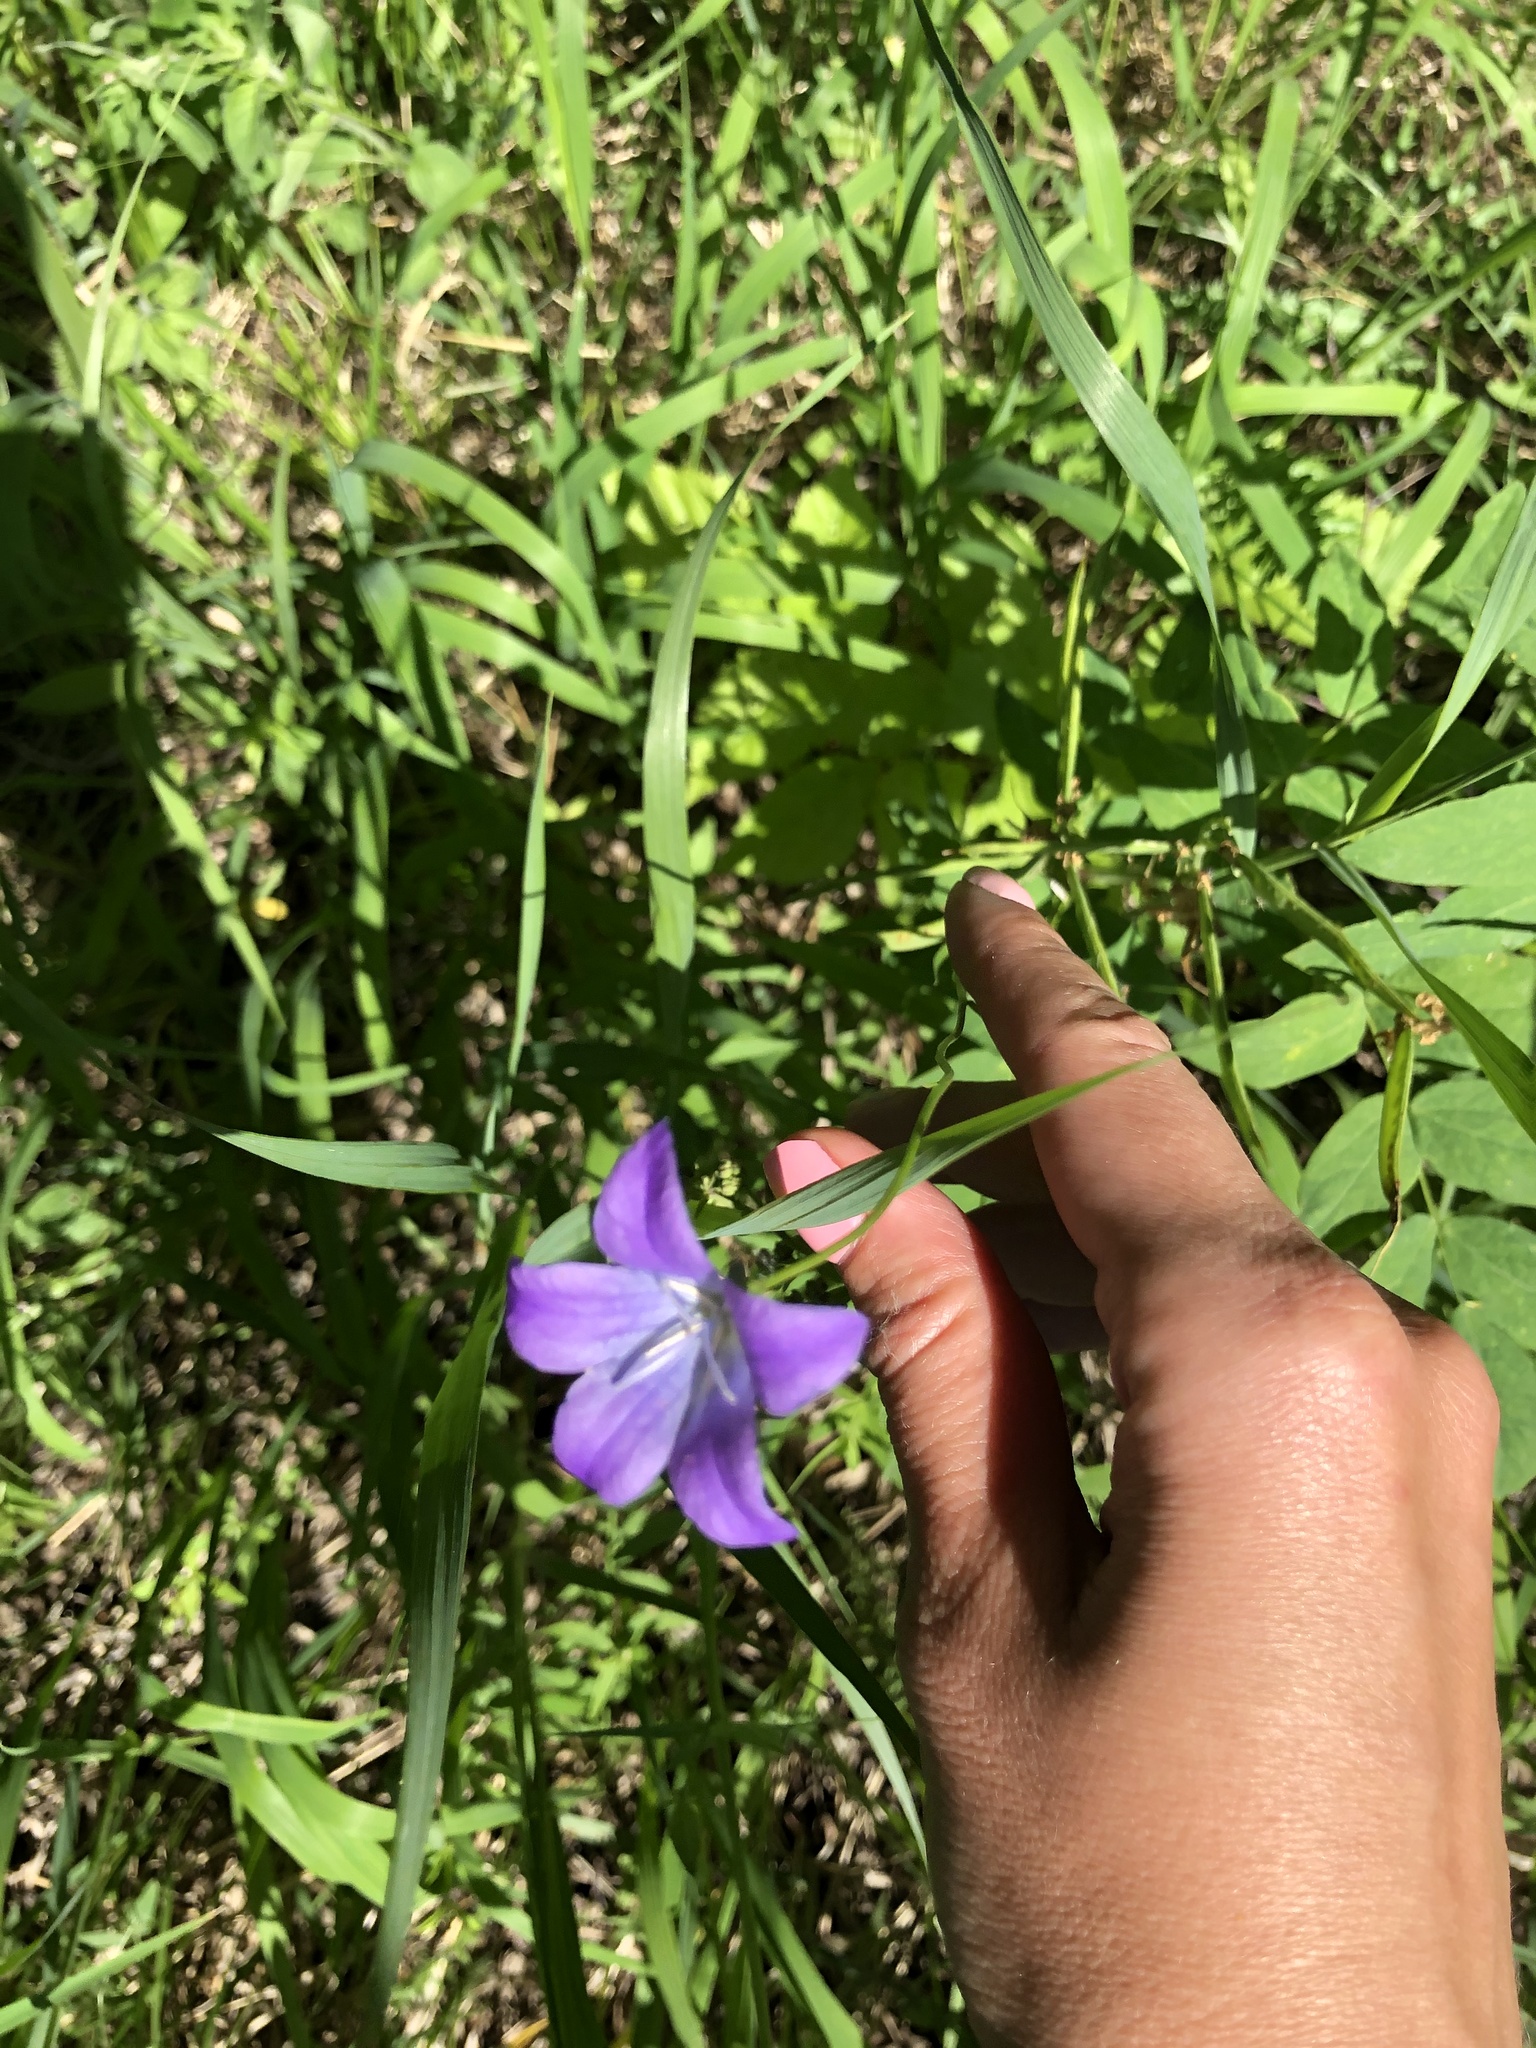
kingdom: Plantae
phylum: Tracheophyta
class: Magnoliopsida
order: Asterales
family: Campanulaceae
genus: Campanula
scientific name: Campanula stevenii
